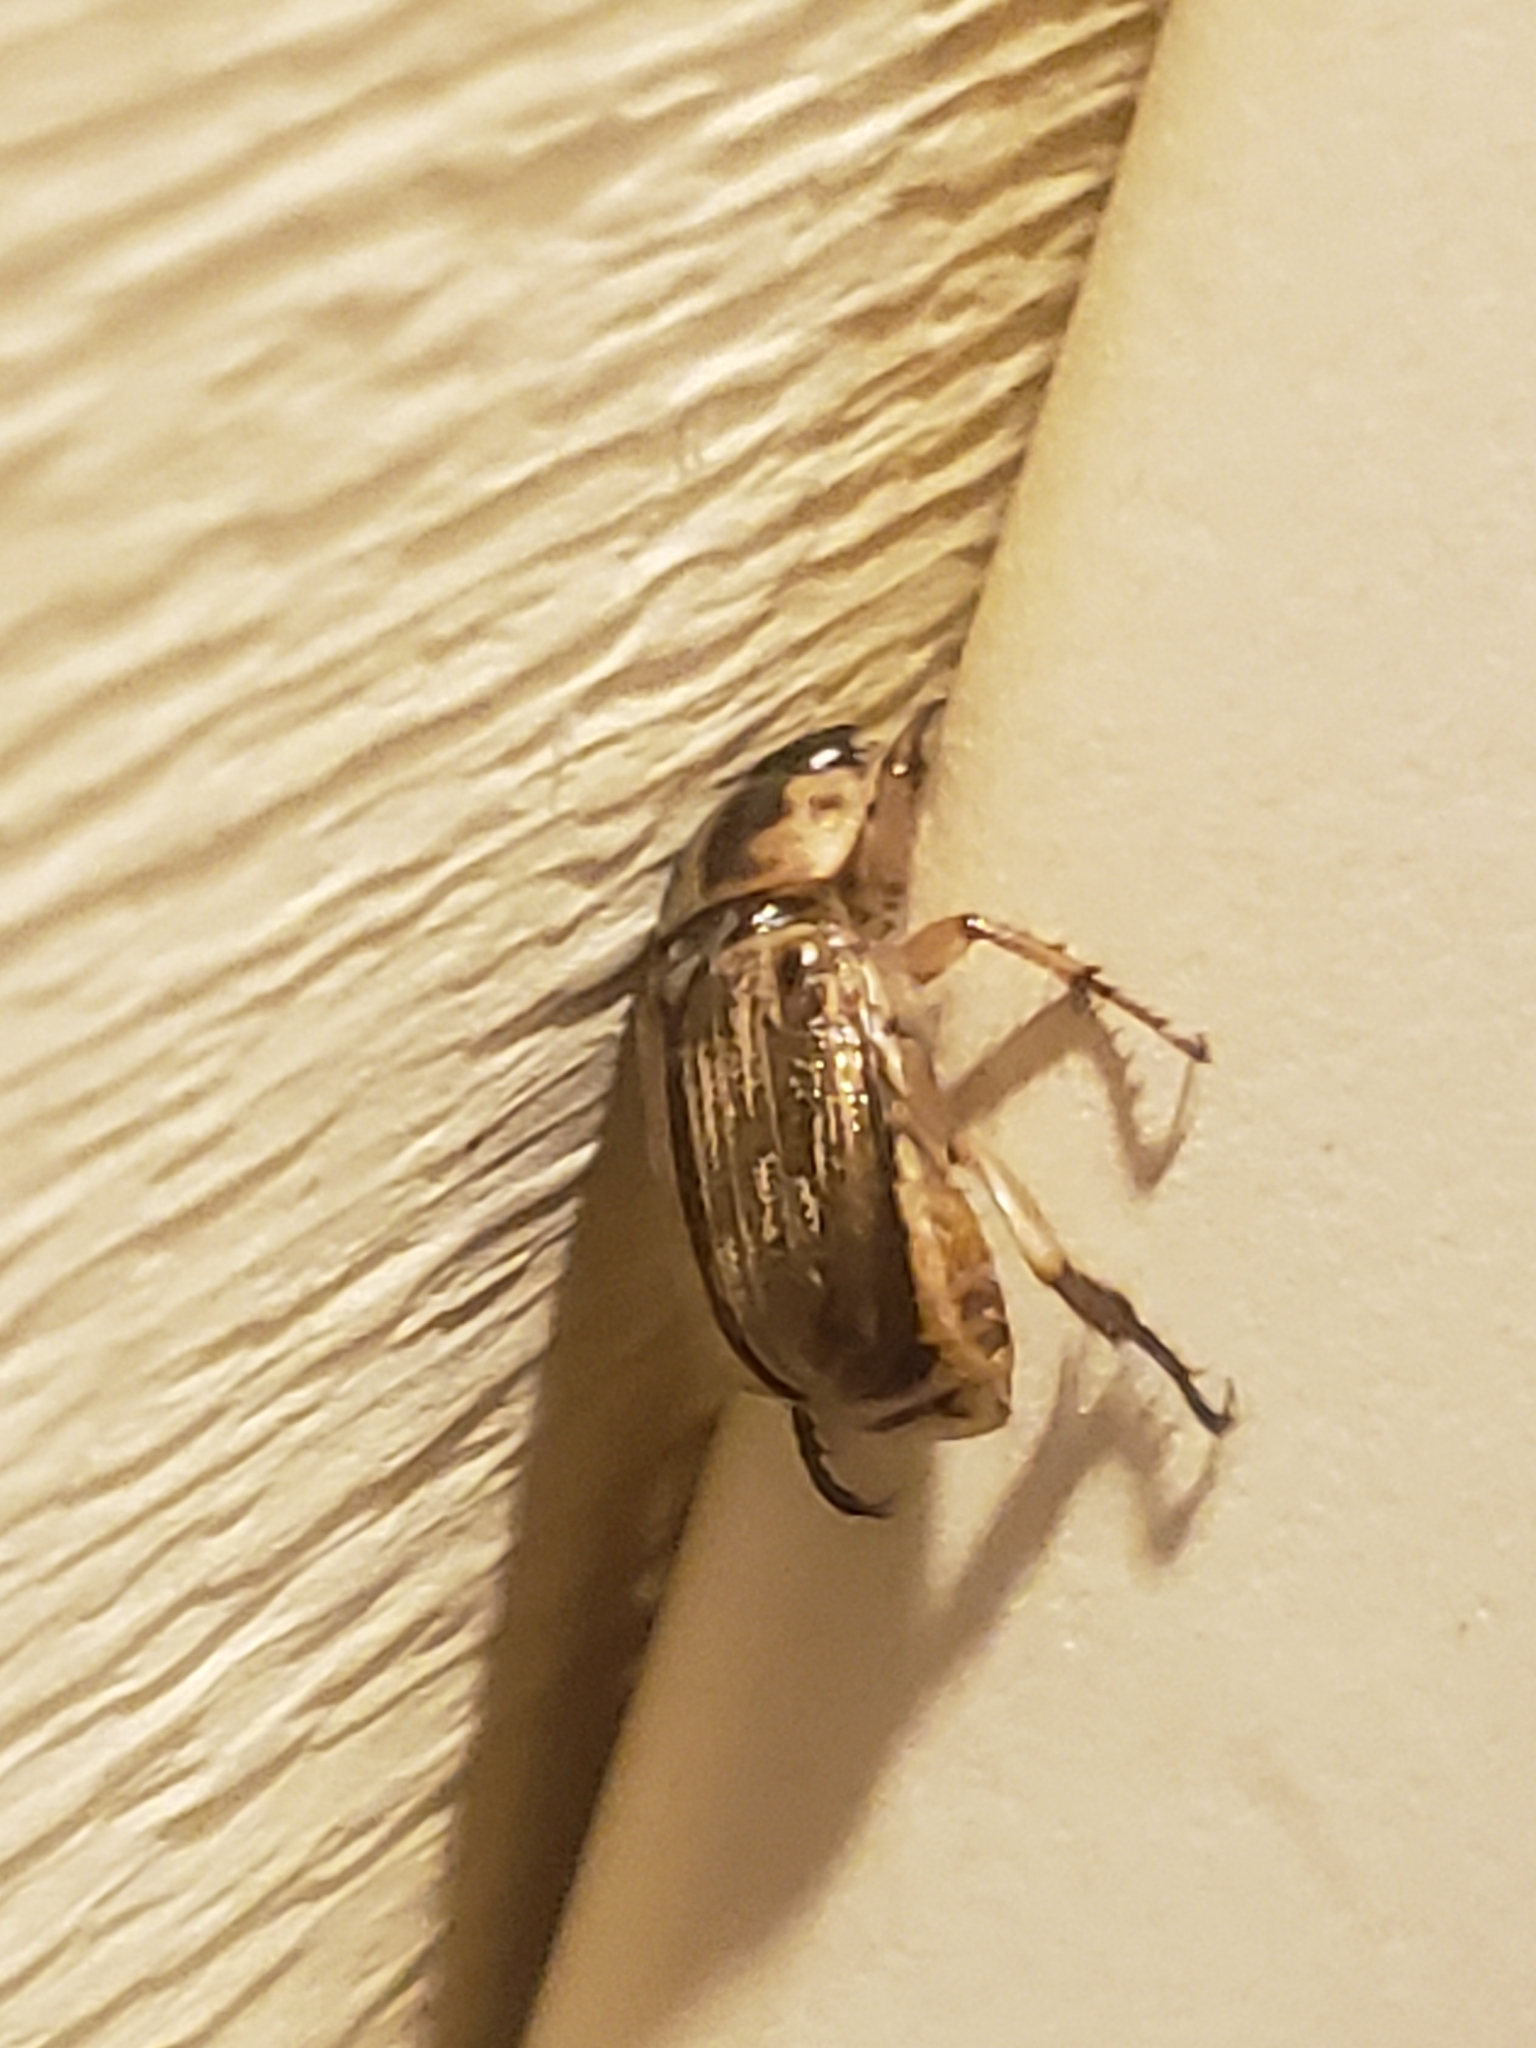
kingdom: Animalia
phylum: Arthropoda
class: Insecta
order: Coleoptera
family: Scarabaeidae
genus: Exomala
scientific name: Exomala orientalis
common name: Oriental beetle
